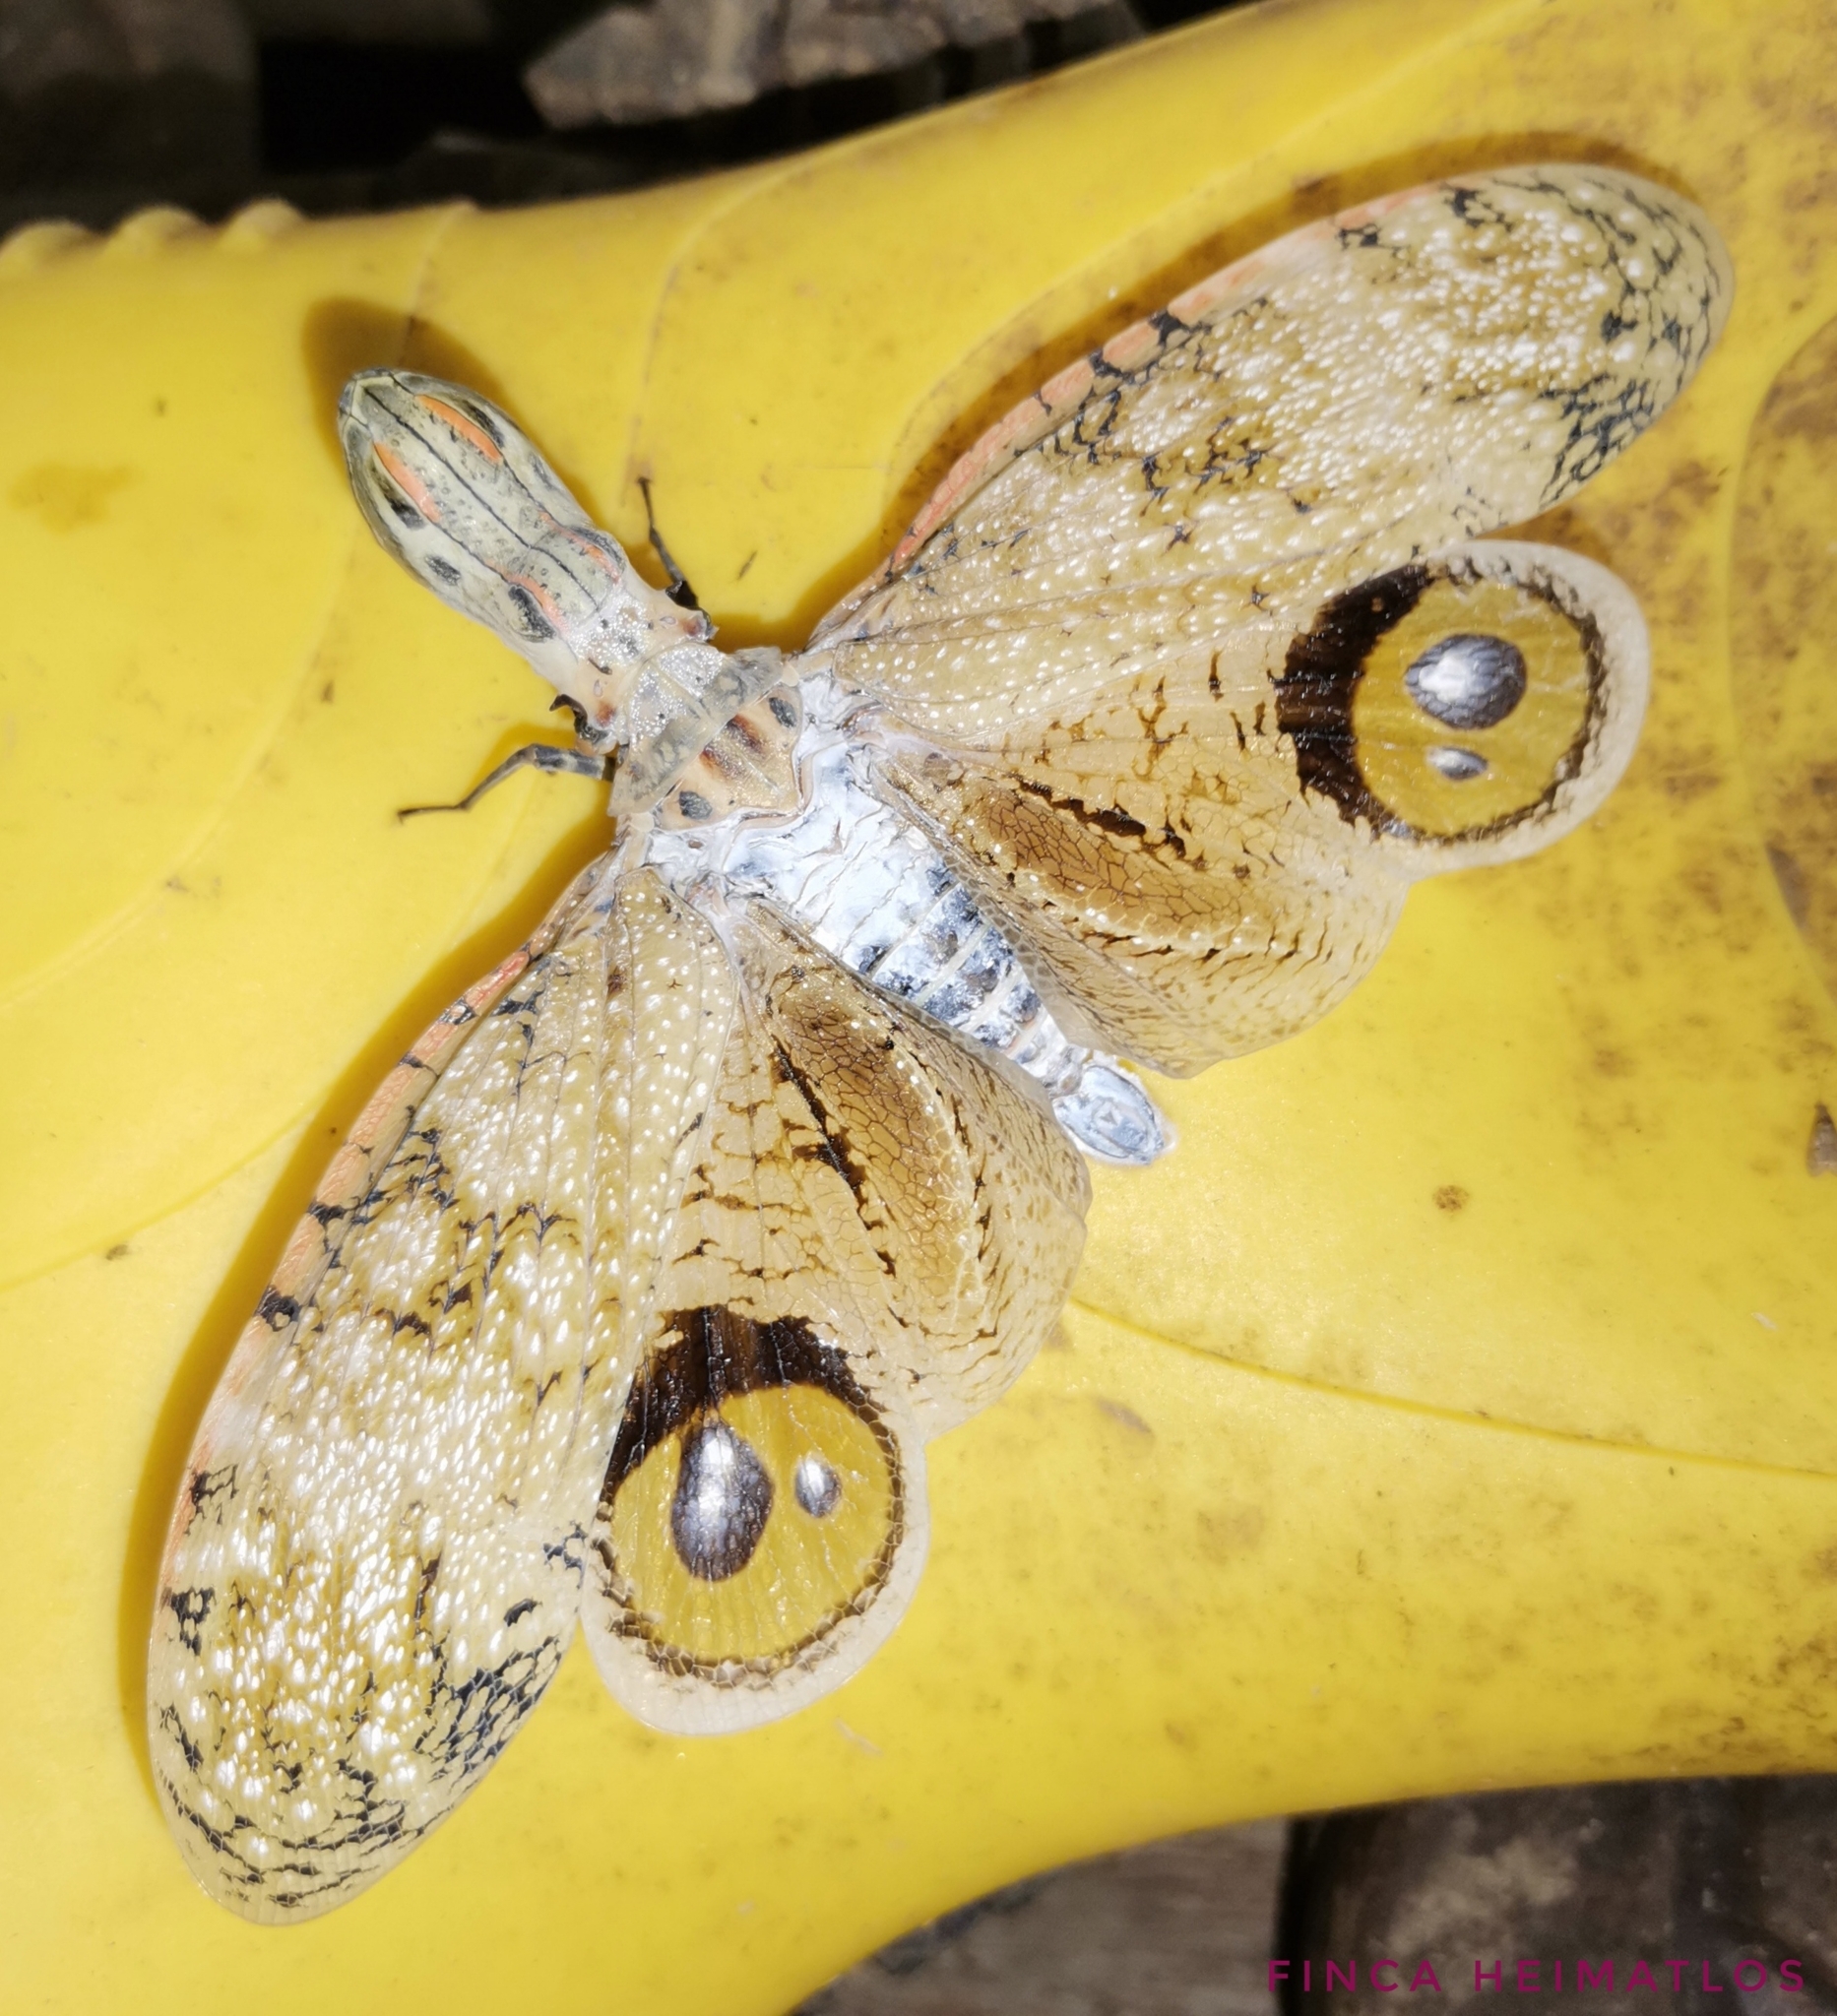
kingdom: Animalia
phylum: Arthropoda
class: Insecta
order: Hemiptera
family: Fulgoridae
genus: Fulgora
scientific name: Fulgora laternaria
